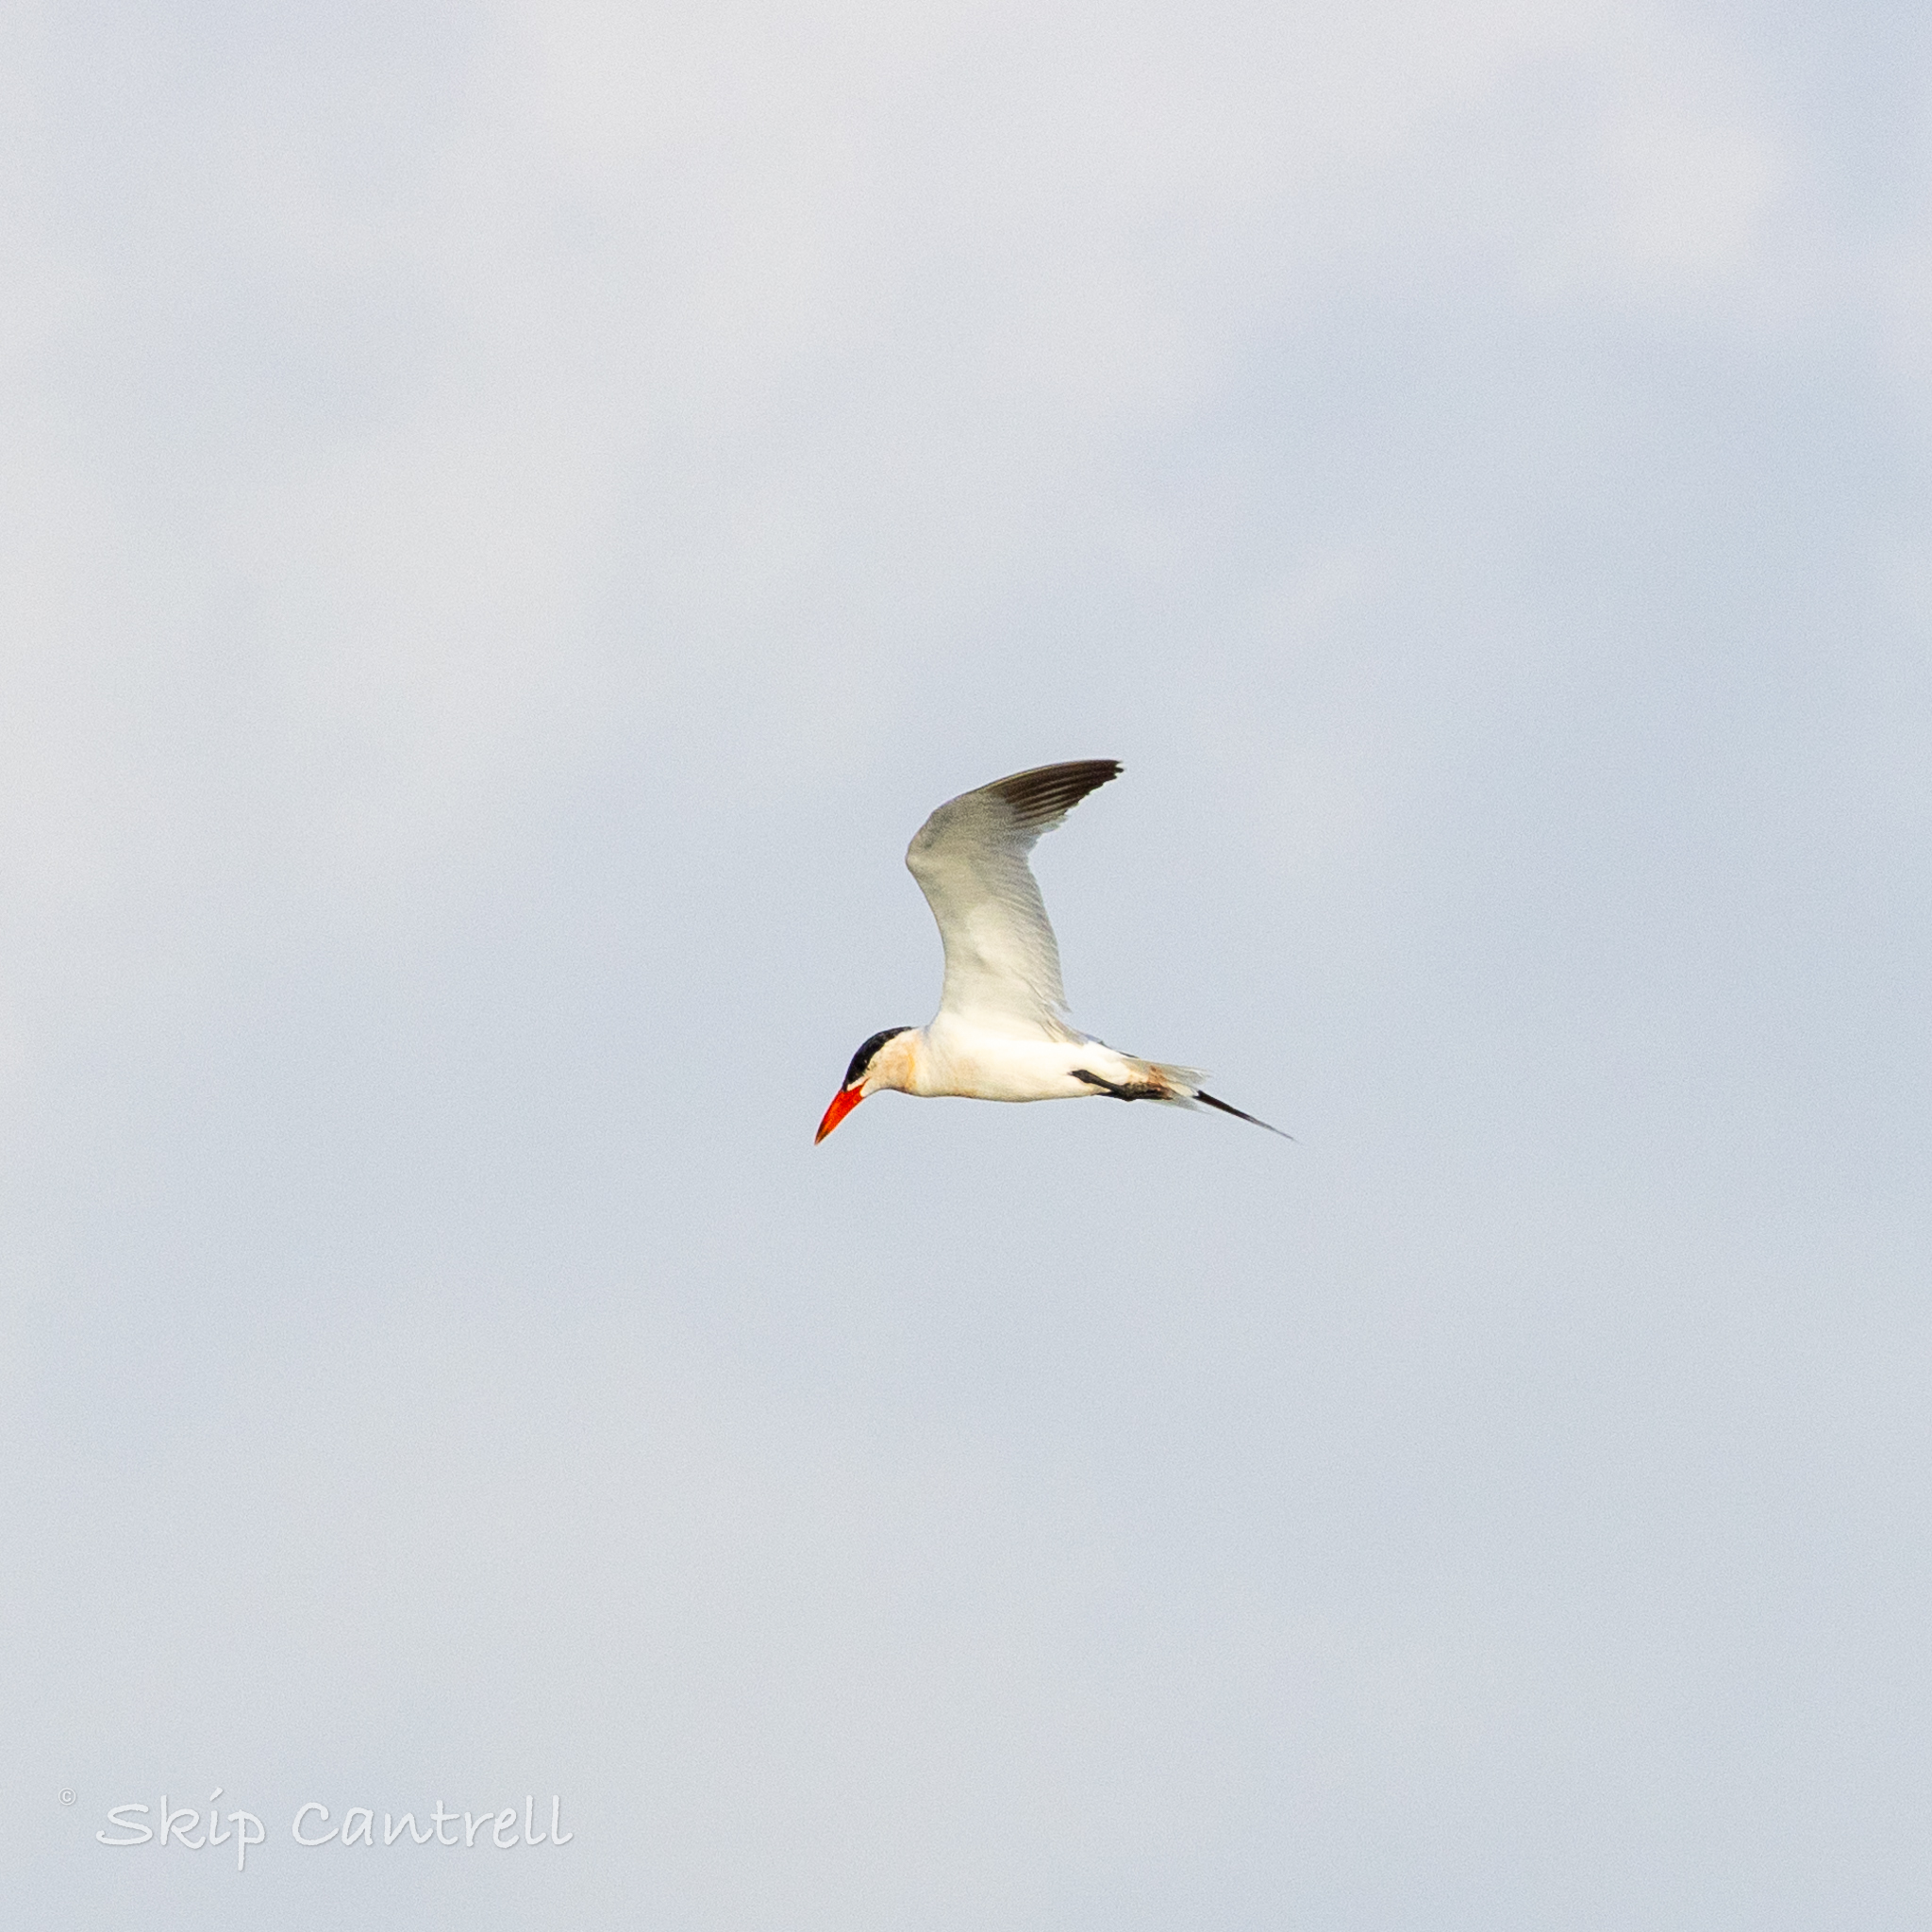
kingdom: Animalia
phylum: Chordata
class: Aves
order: Charadriiformes
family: Laridae
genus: Hydroprogne
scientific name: Hydroprogne caspia
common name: Caspian tern
